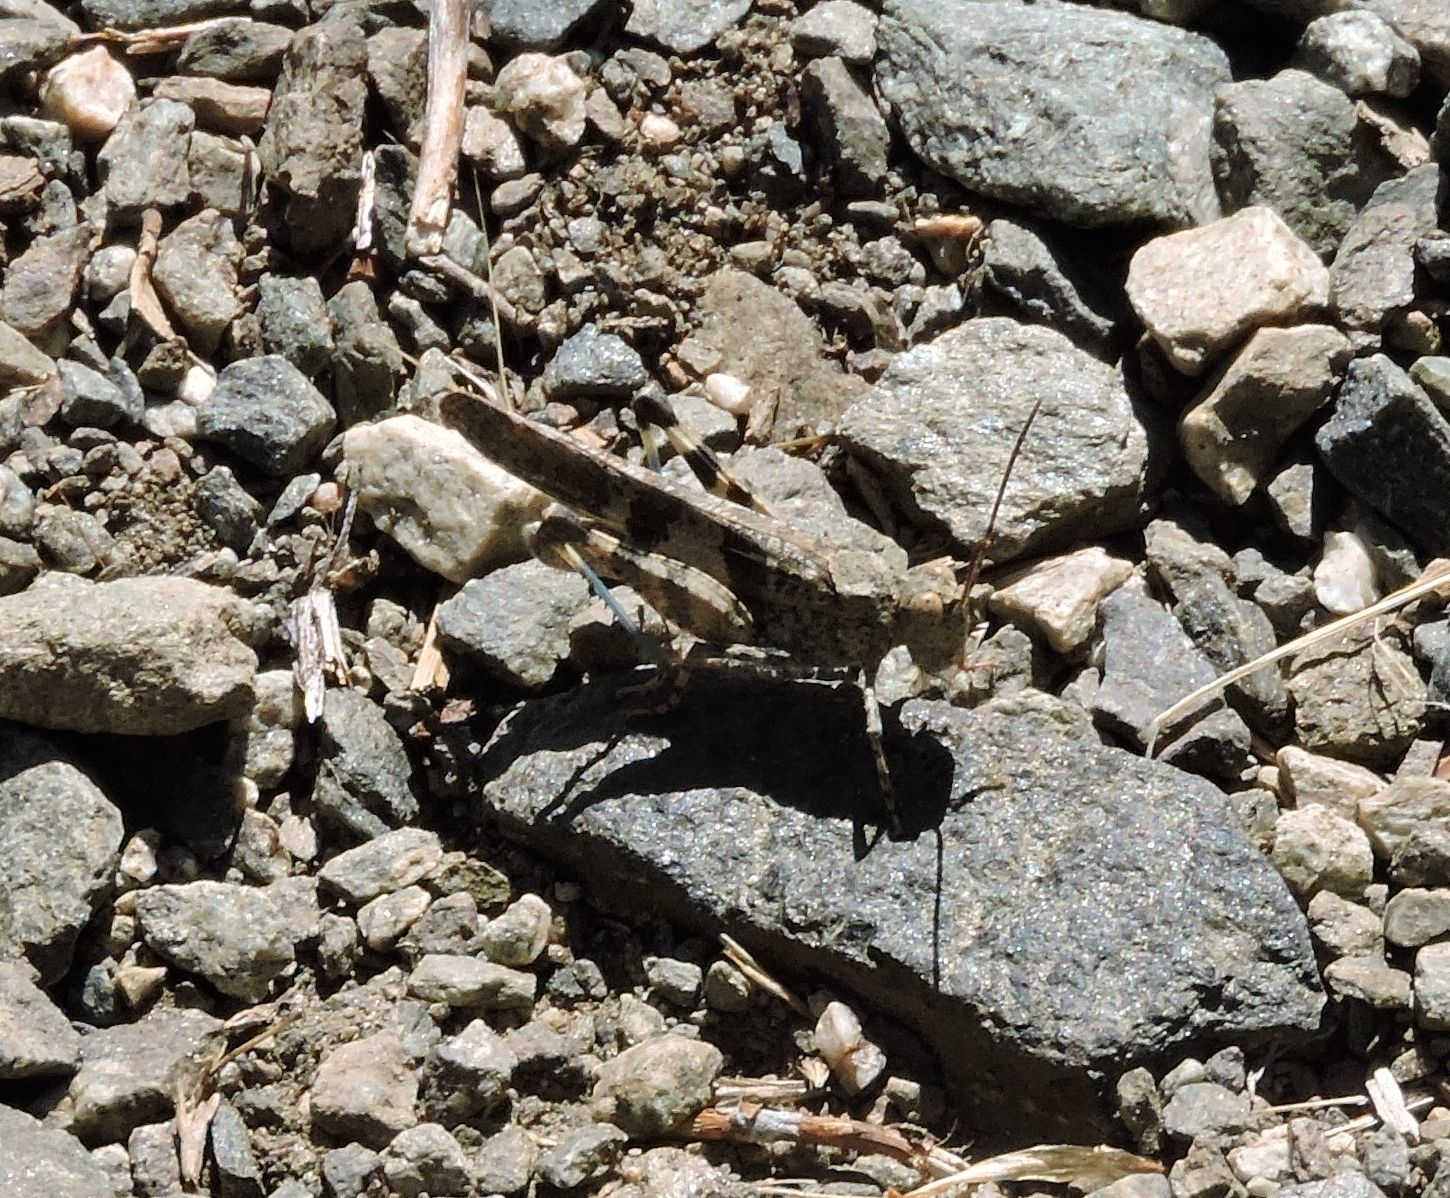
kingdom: Animalia
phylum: Arthropoda
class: Insecta
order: Orthoptera
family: Acrididae
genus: Trimerotropis
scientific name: Trimerotropis fontana
